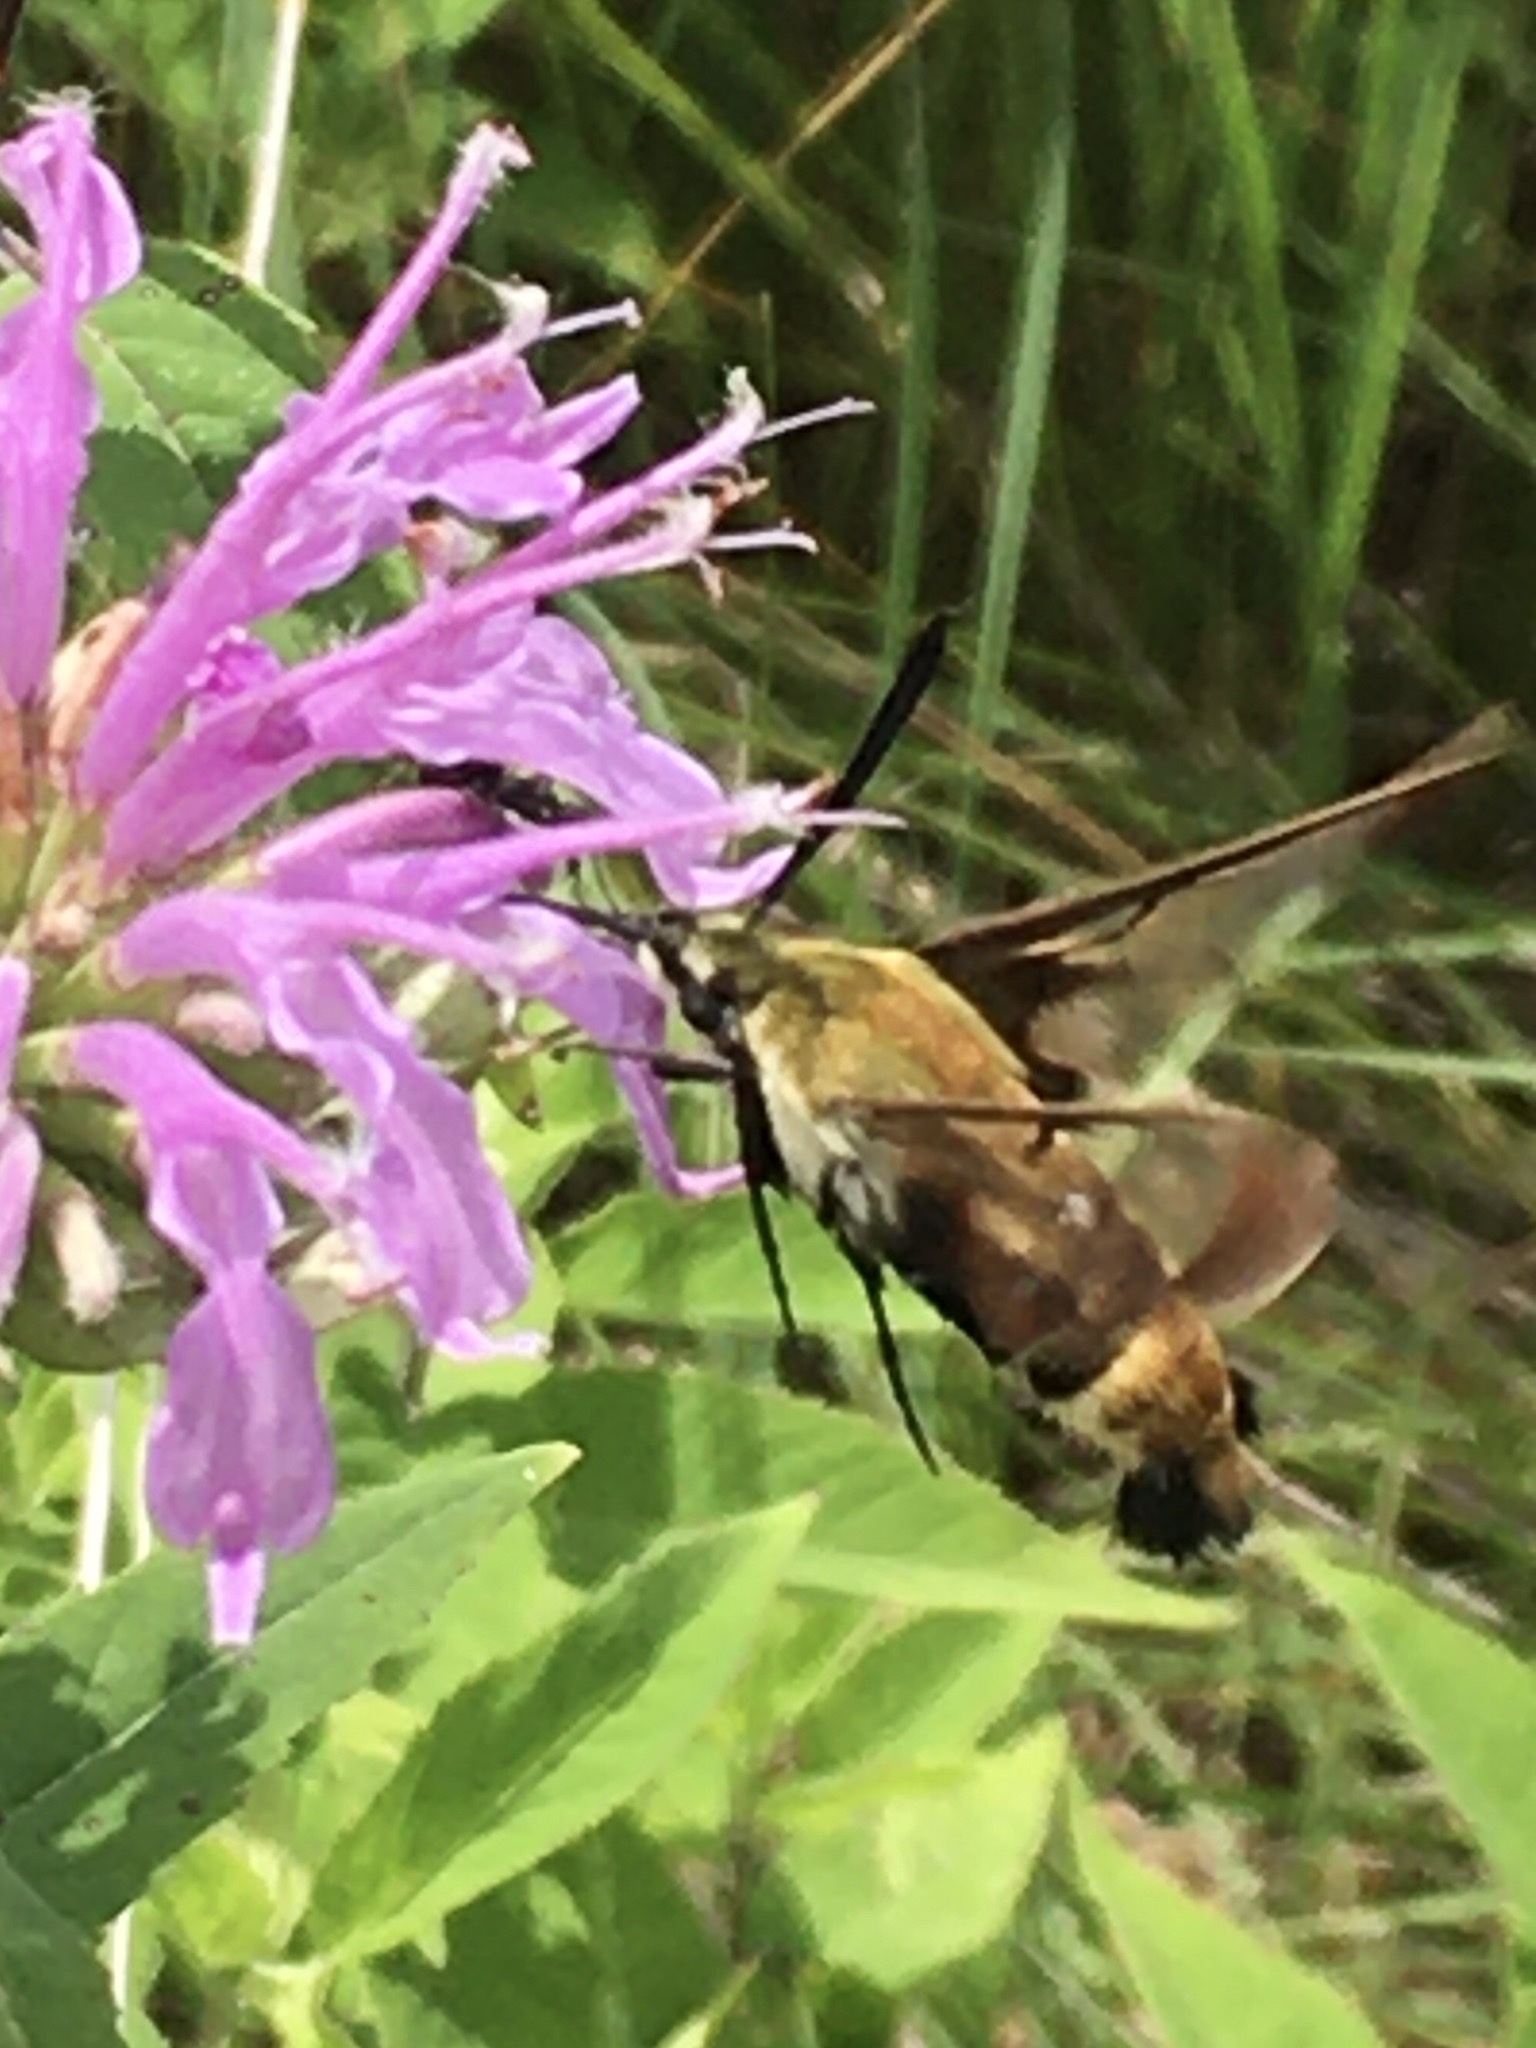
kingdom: Animalia
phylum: Arthropoda
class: Insecta
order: Lepidoptera
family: Sphingidae
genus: Hemaris
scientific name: Hemaris diffinis
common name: Bumblebee moth
